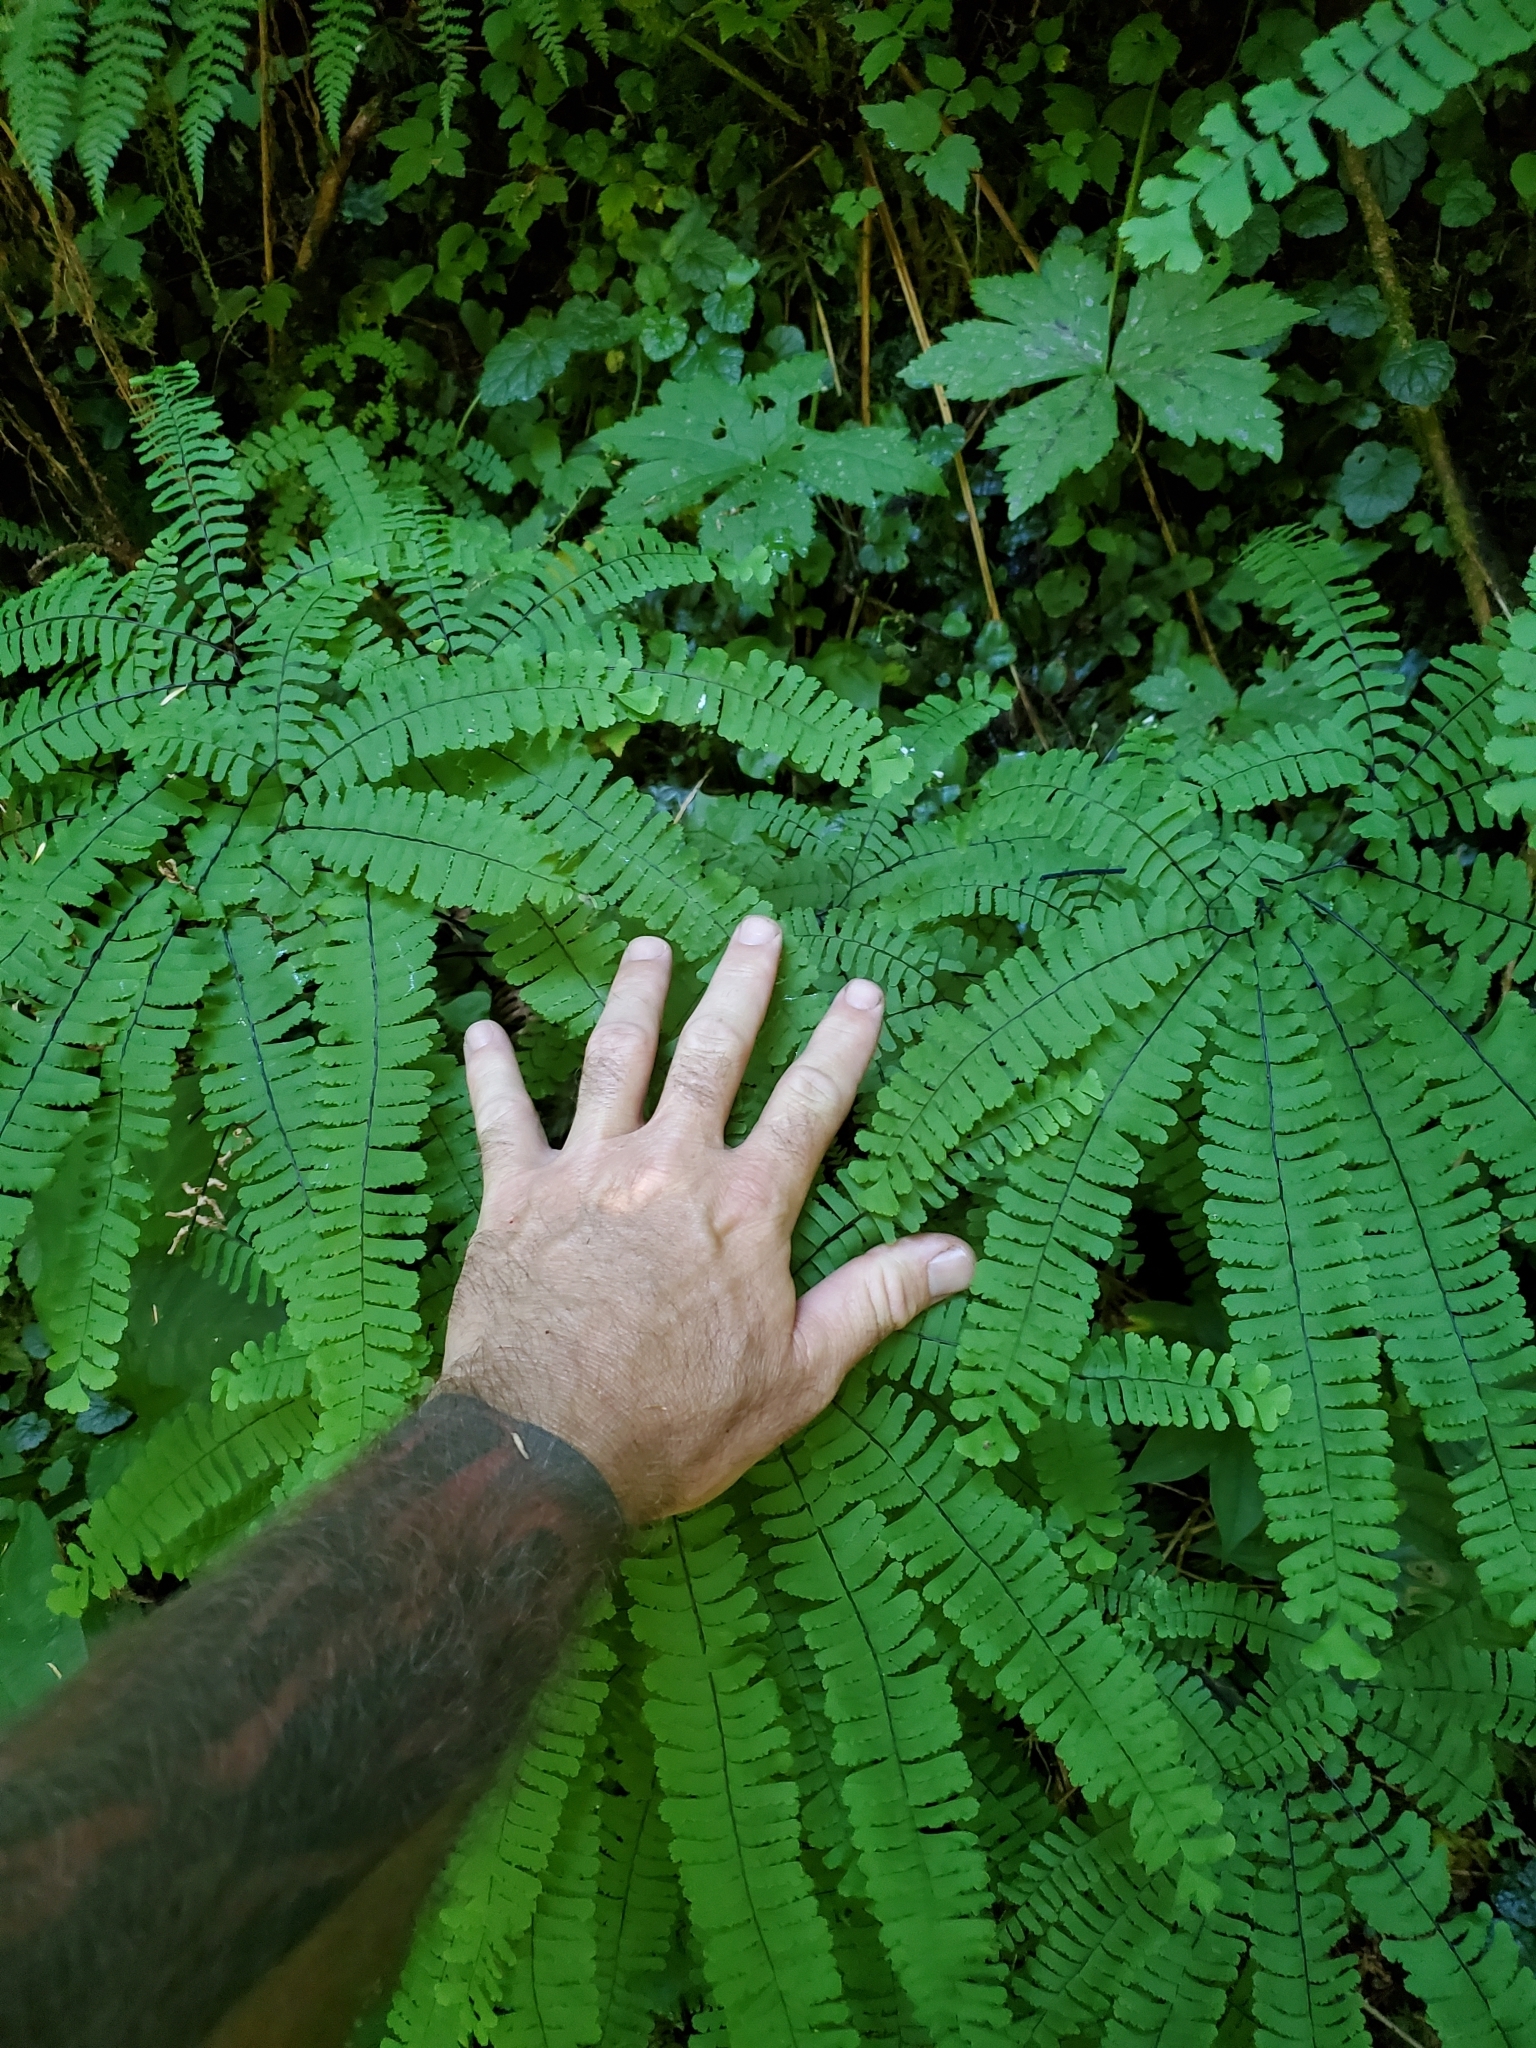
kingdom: Plantae
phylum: Tracheophyta
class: Polypodiopsida
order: Polypodiales
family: Pteridaceae
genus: Adiantum
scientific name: Adiantum aleuticum
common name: Aleutian maidenhair fern
